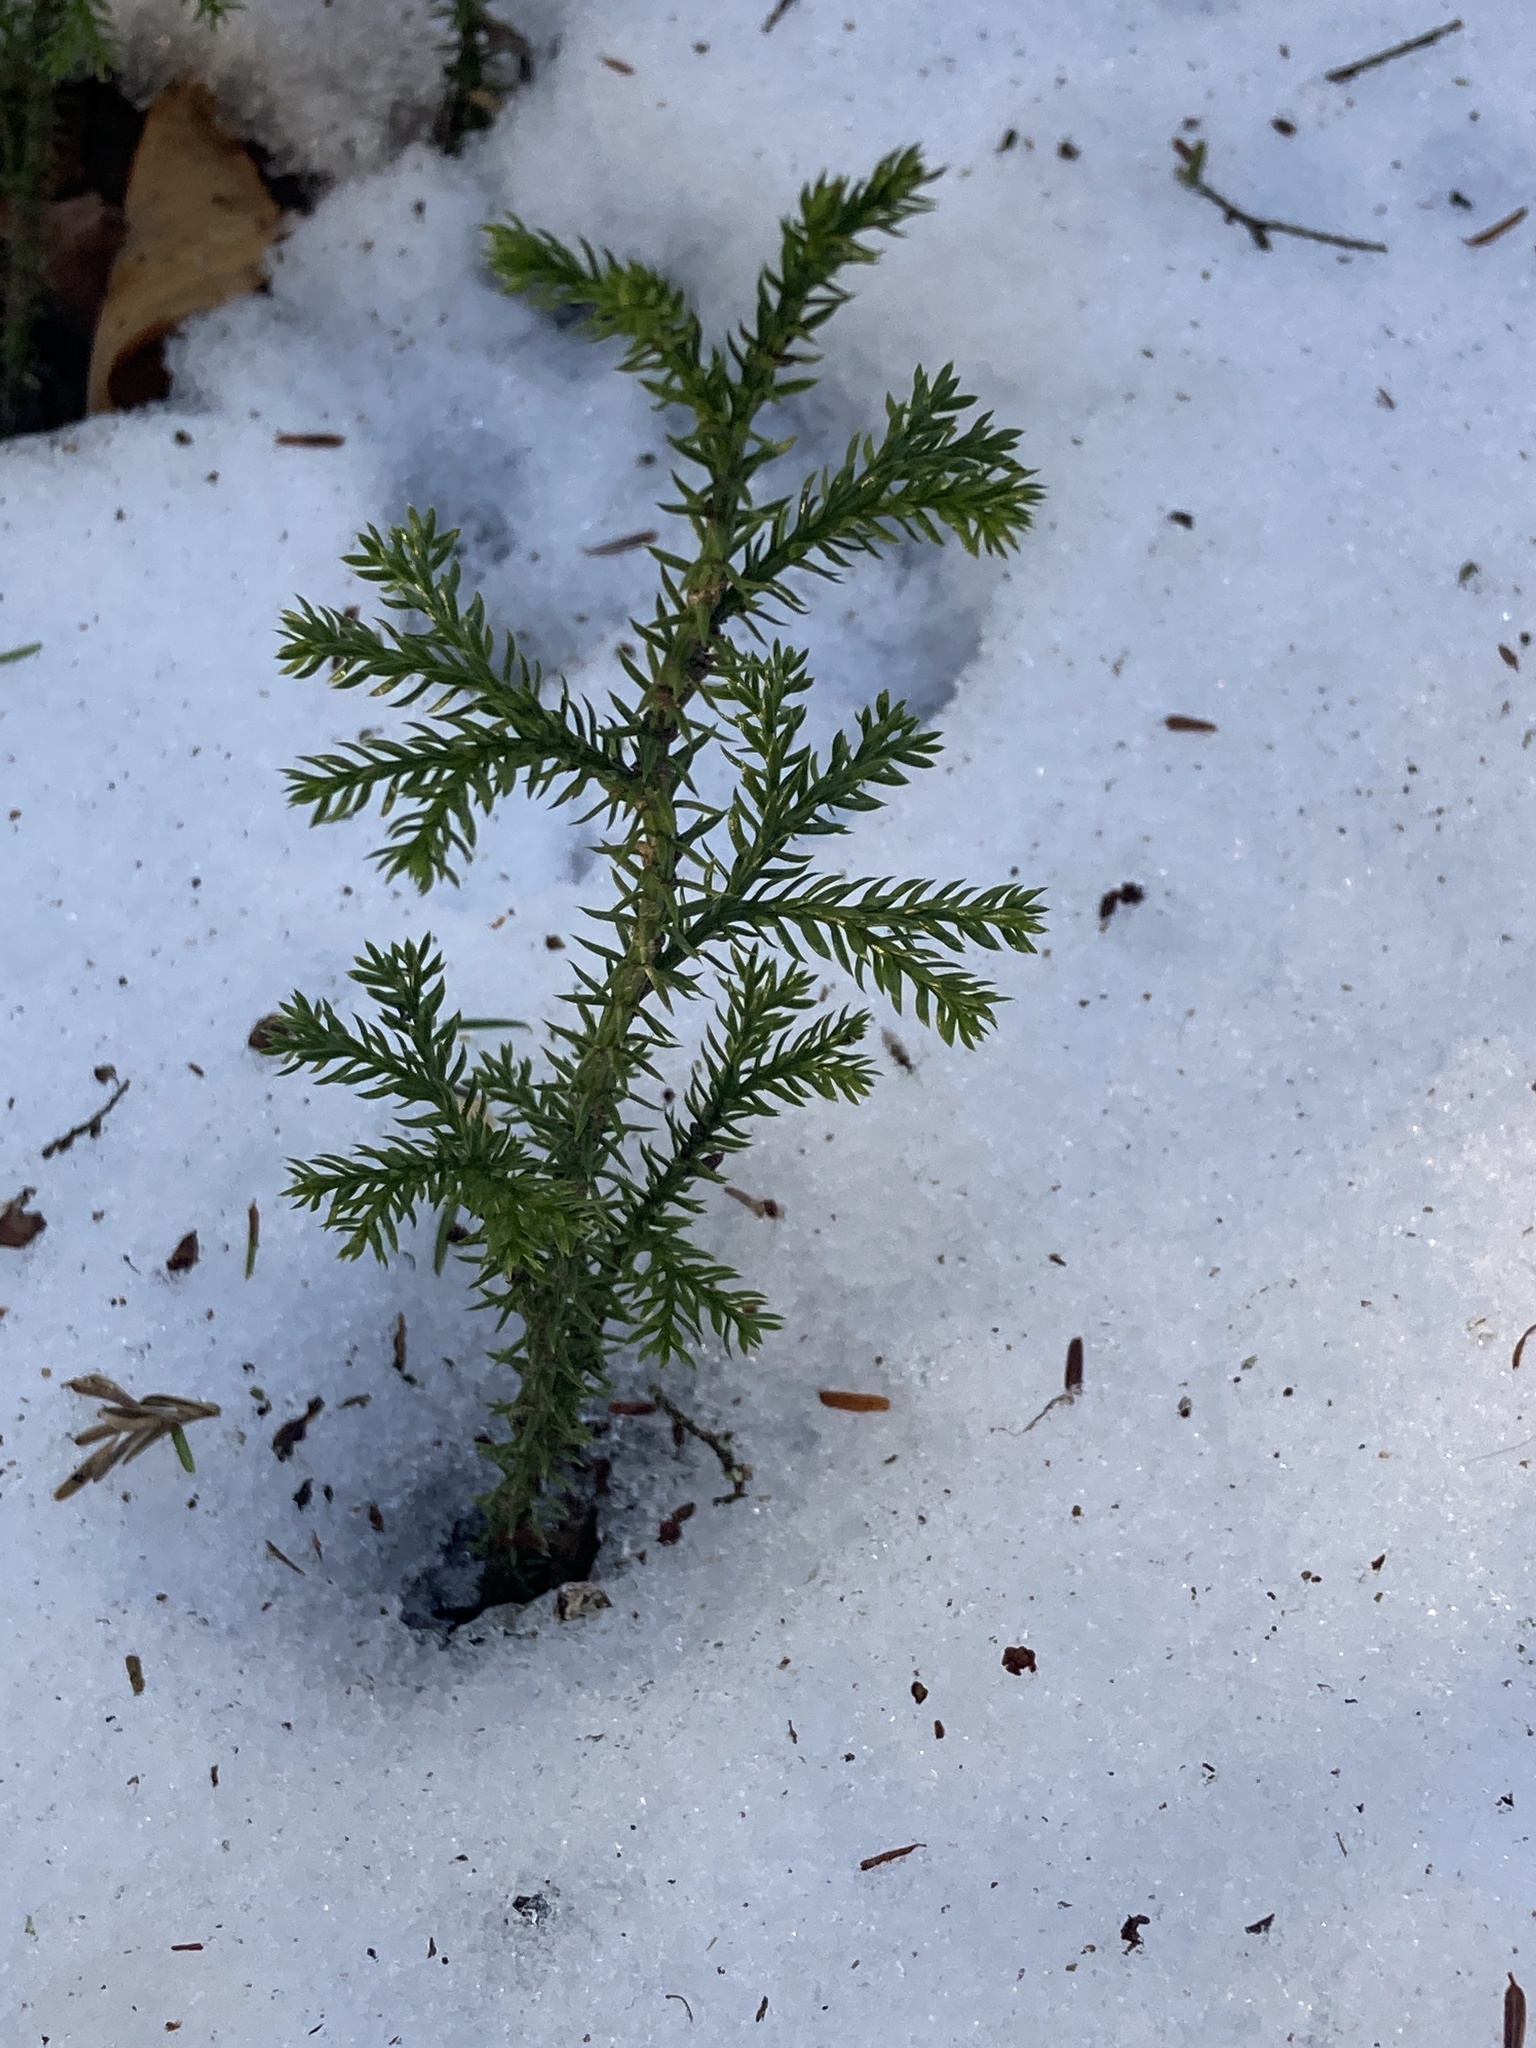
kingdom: Plantae
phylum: Tracheophyta
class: Lycopodiopsida
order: Lycopodiales
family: Lycopodiaceae
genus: Dendrolycopodium
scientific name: Dendrolycopodium dendroideum
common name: Northern tree-clubmoss
